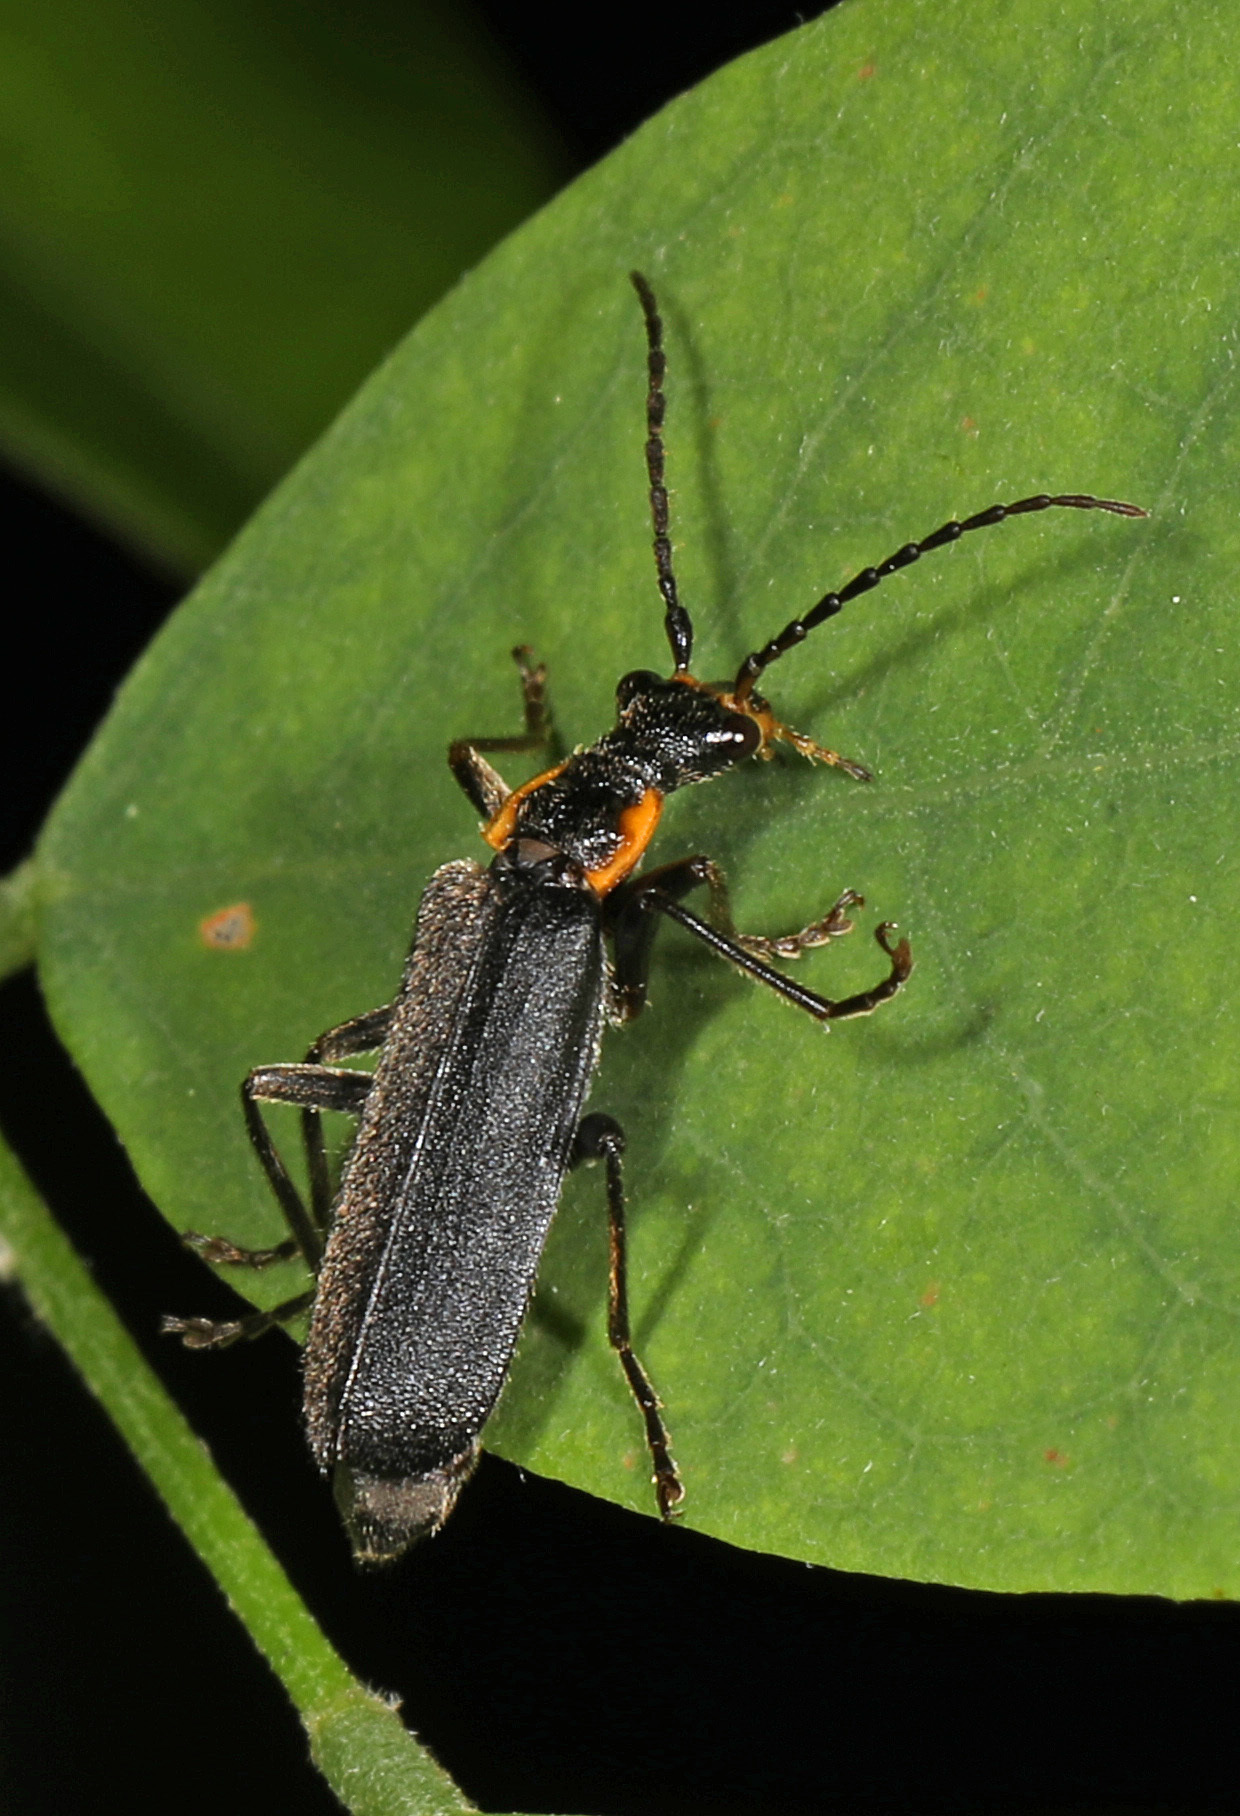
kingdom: Animalia
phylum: Arthropoda
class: Insecta
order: Coleoptera
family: Cantharidae
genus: Podabrus
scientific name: Podabrus rugosulus
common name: Wrinkled soldier beetle
